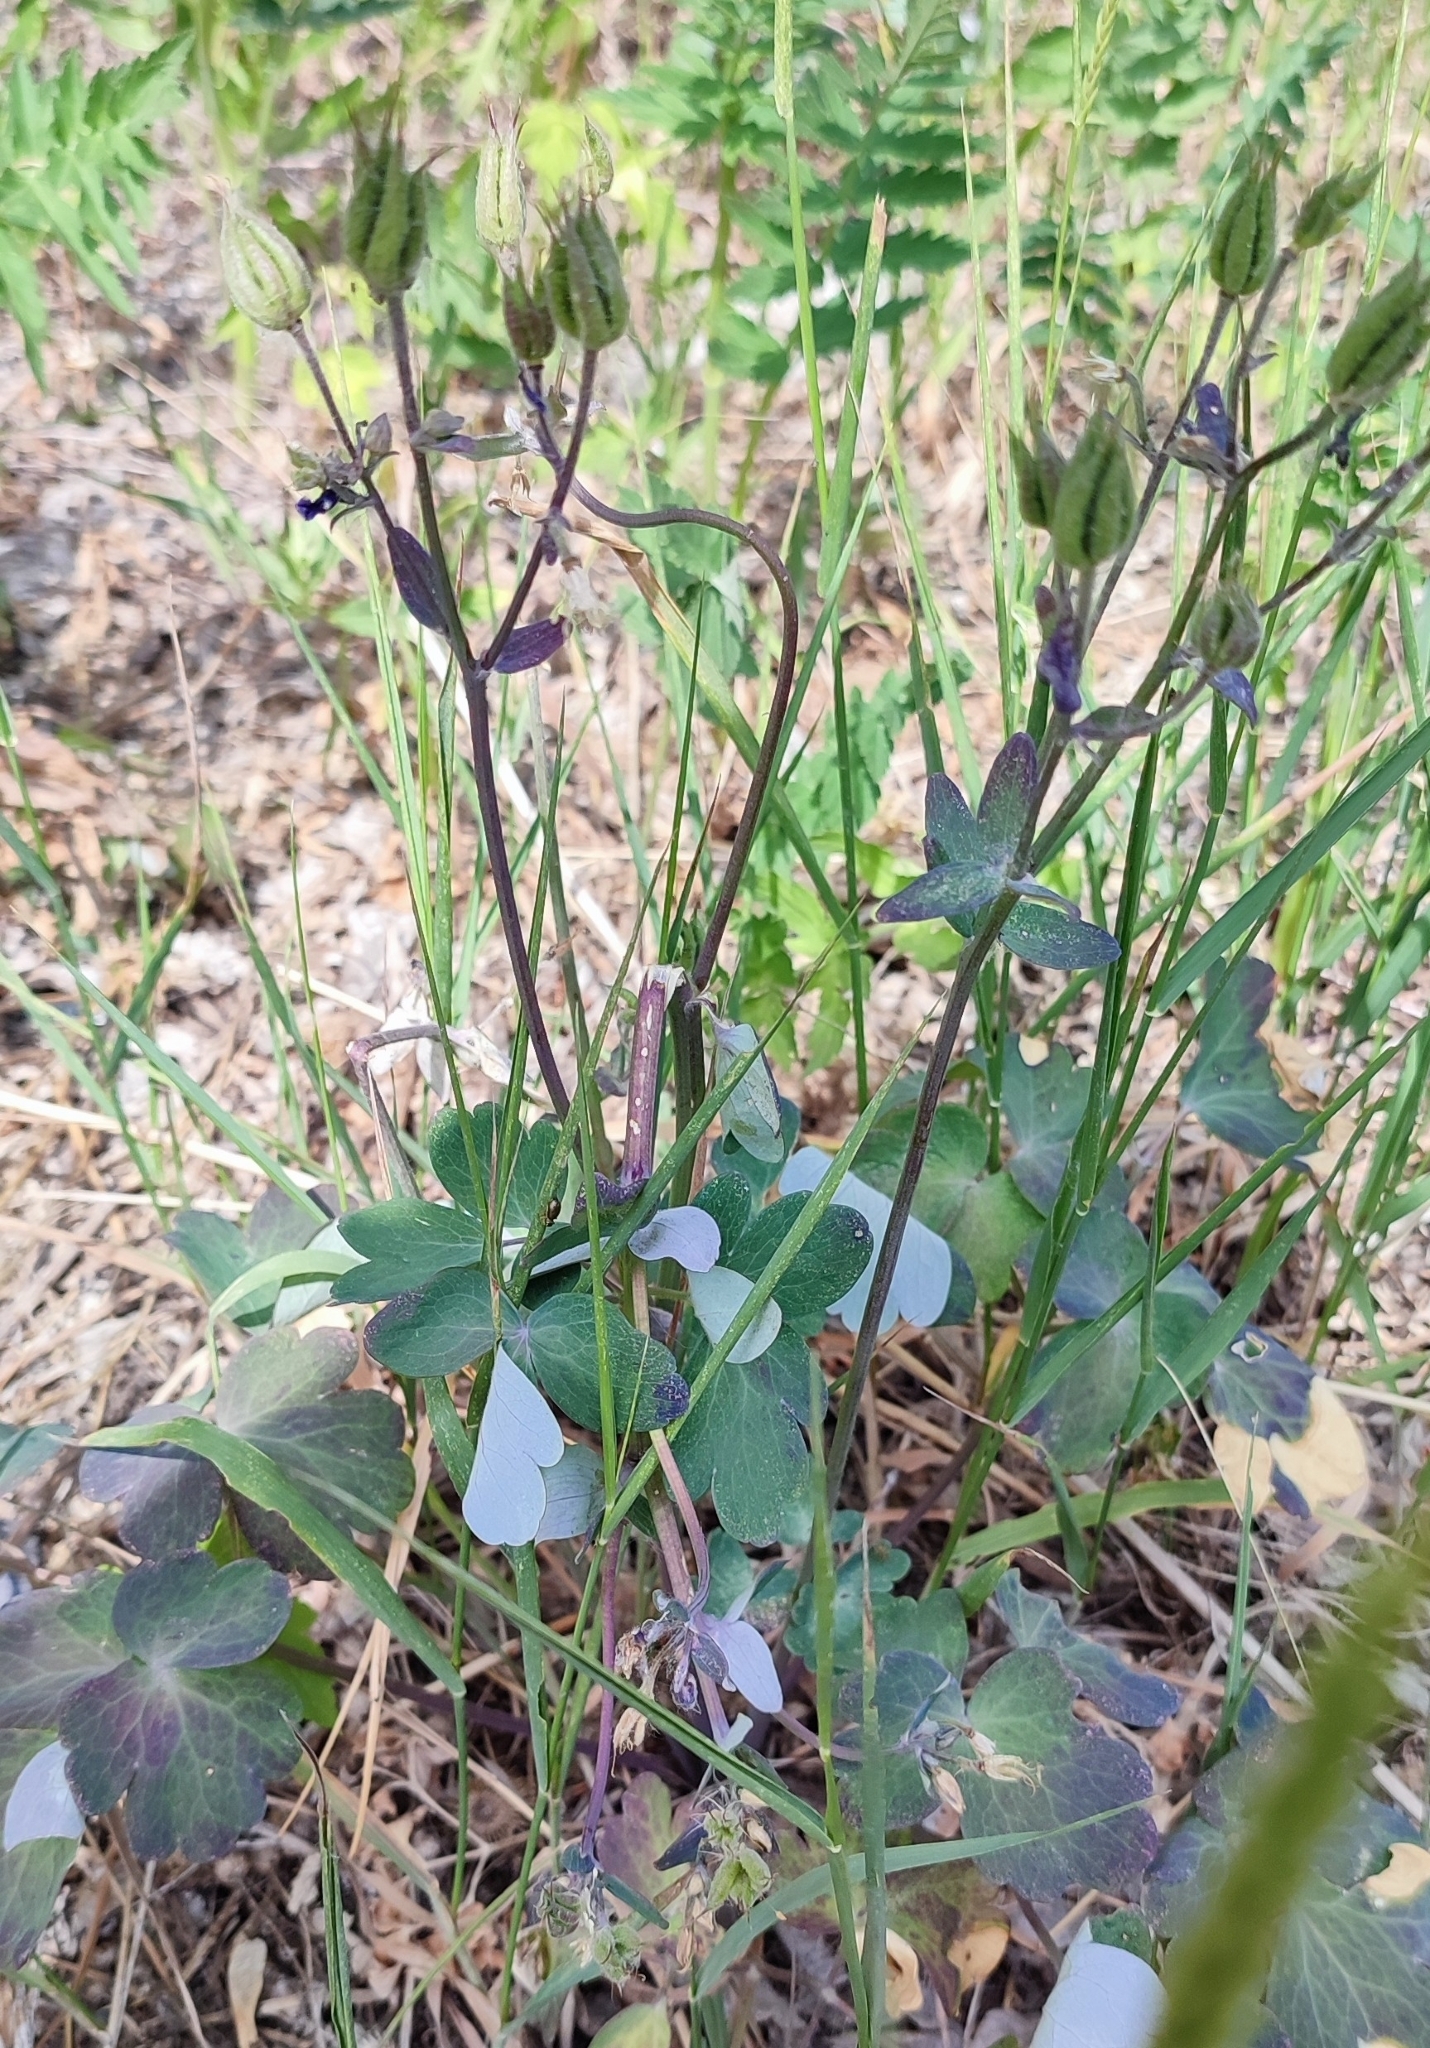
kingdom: Plantae
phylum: Tracheophyta
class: Magnoliopsida
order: Ranunculales
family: Ranunculaceae
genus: Aquilegia
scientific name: Aquilegia vulgaris
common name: Columbine
